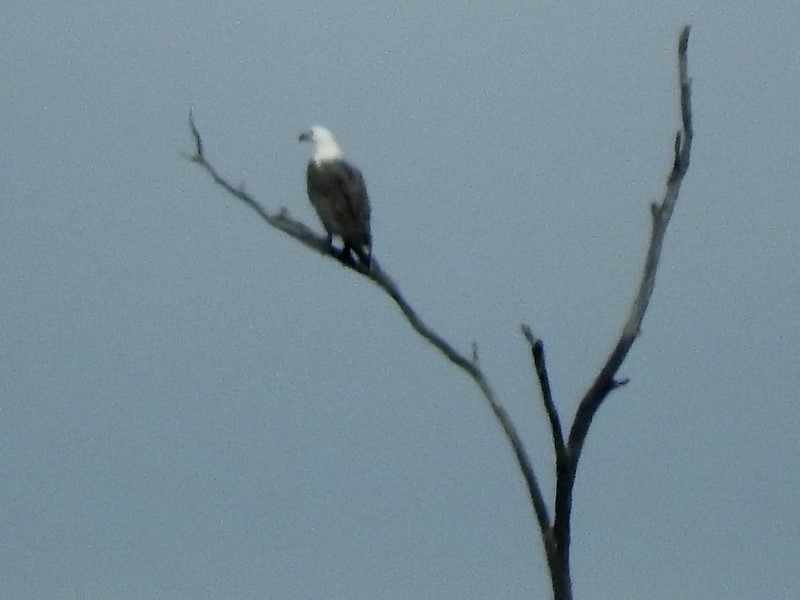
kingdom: Animalia
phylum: Chordata
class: Aves
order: Accipitriformes
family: Accipitridae
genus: Haliaeetus
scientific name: Haliaeetus leucogaster
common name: White-bellied sea eagle
